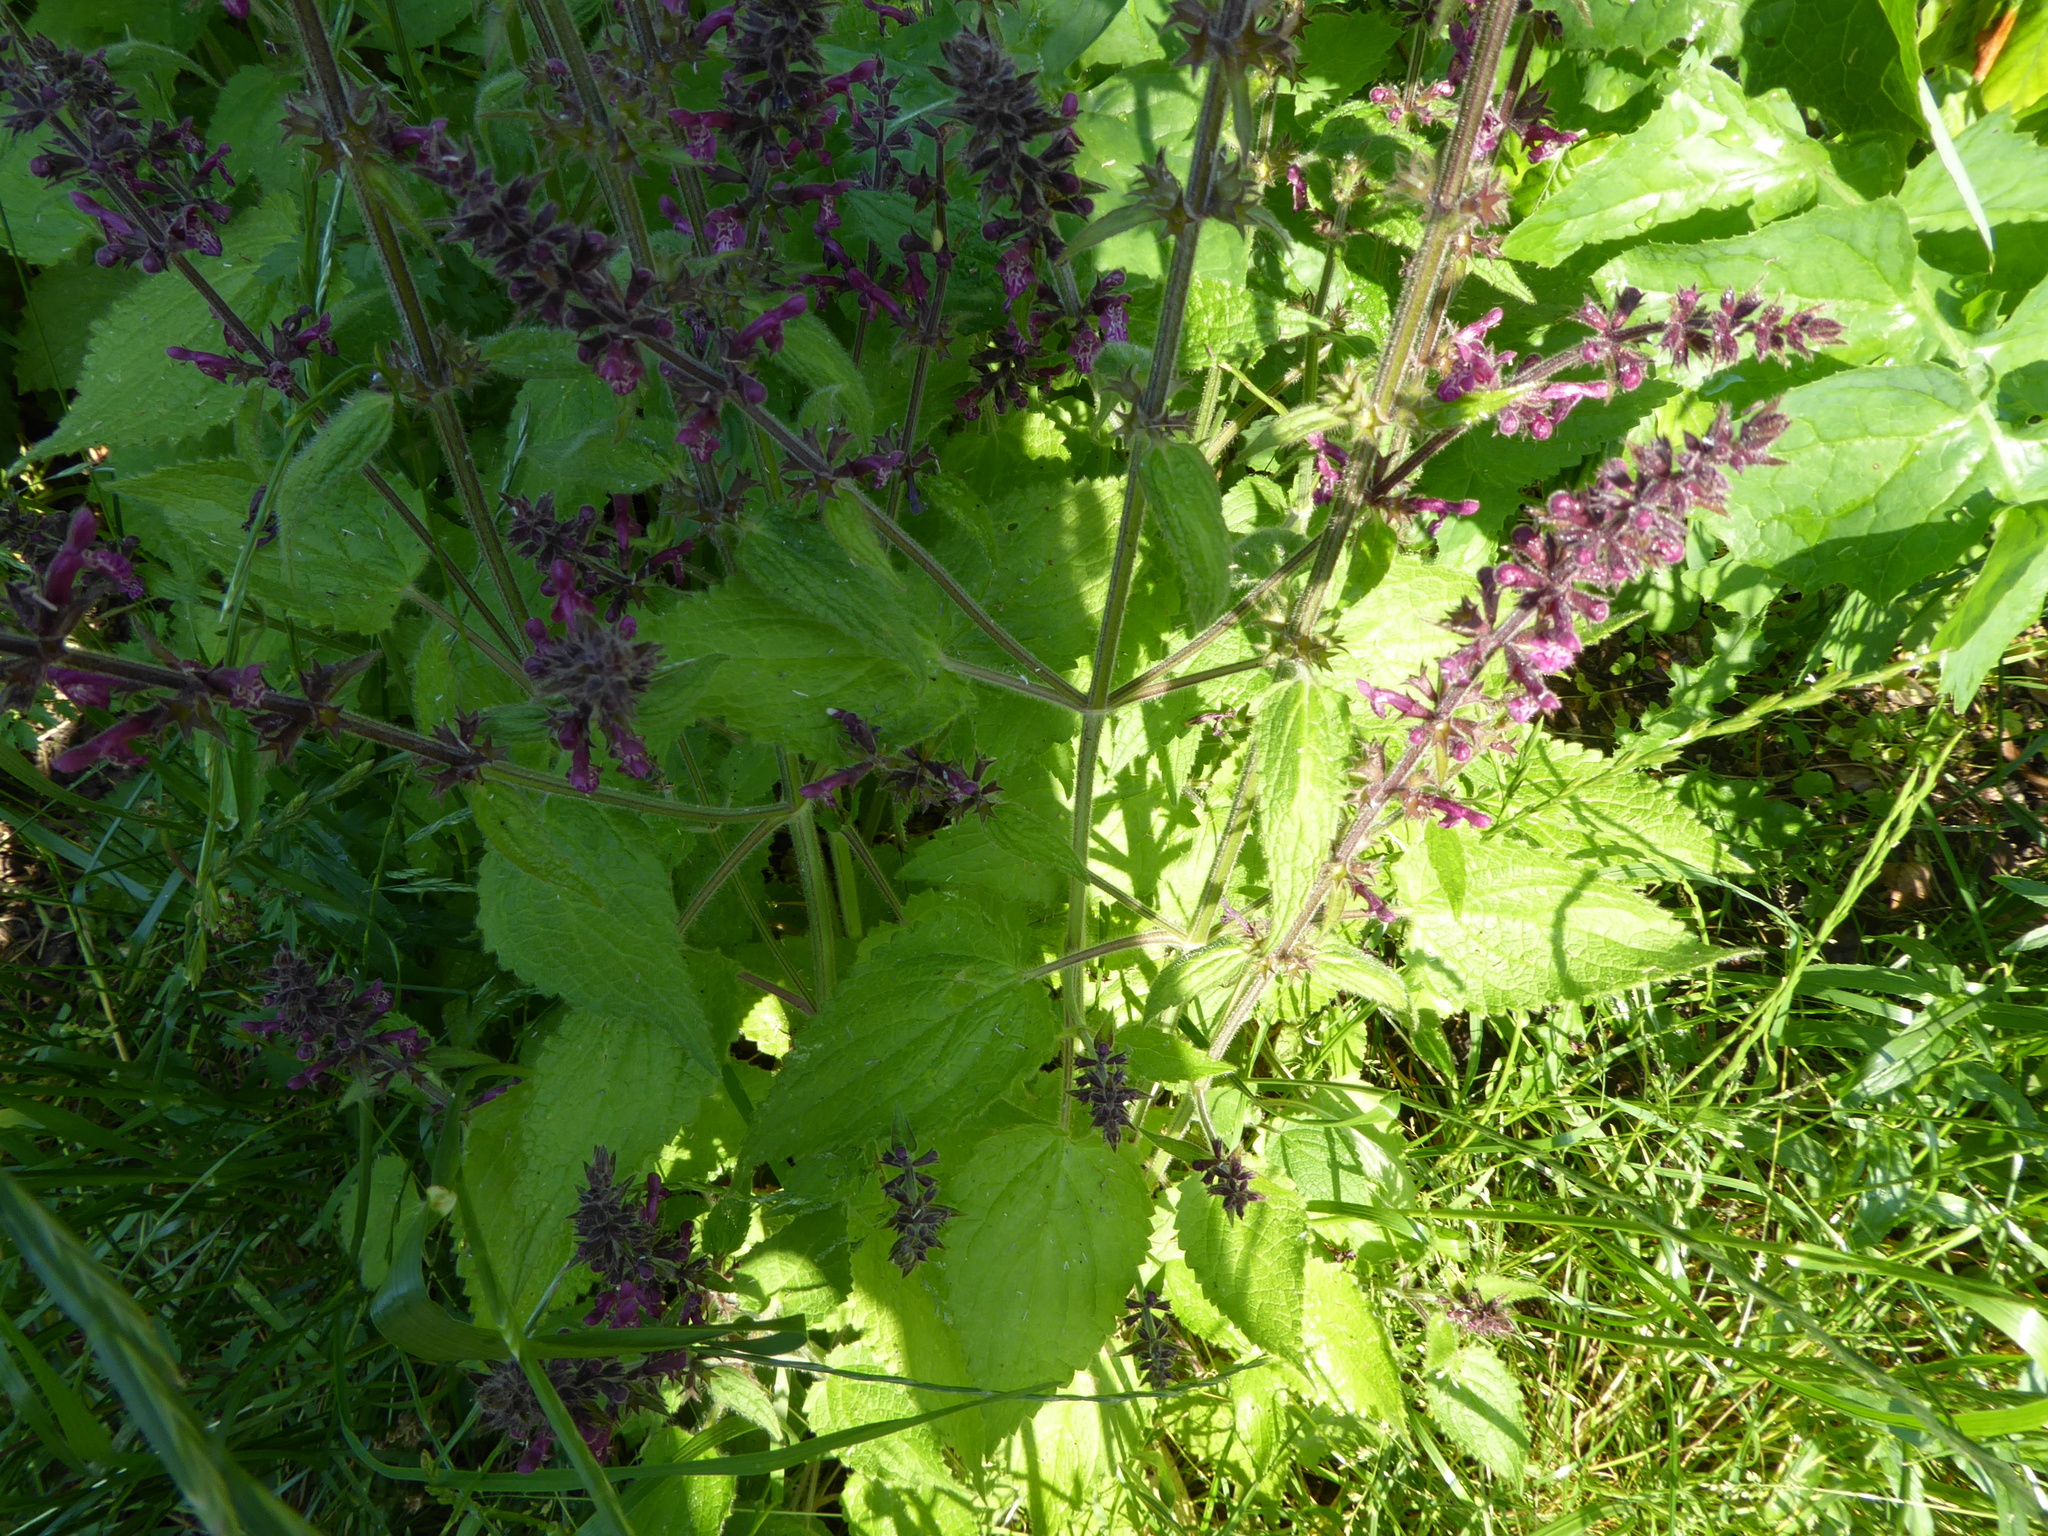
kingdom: Plantae
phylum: Tracheophyta
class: Magnoliopsida
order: Lamiales
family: Lamiaceae
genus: Stachys
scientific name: Stachys sylvatica
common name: Hedge woundwort
